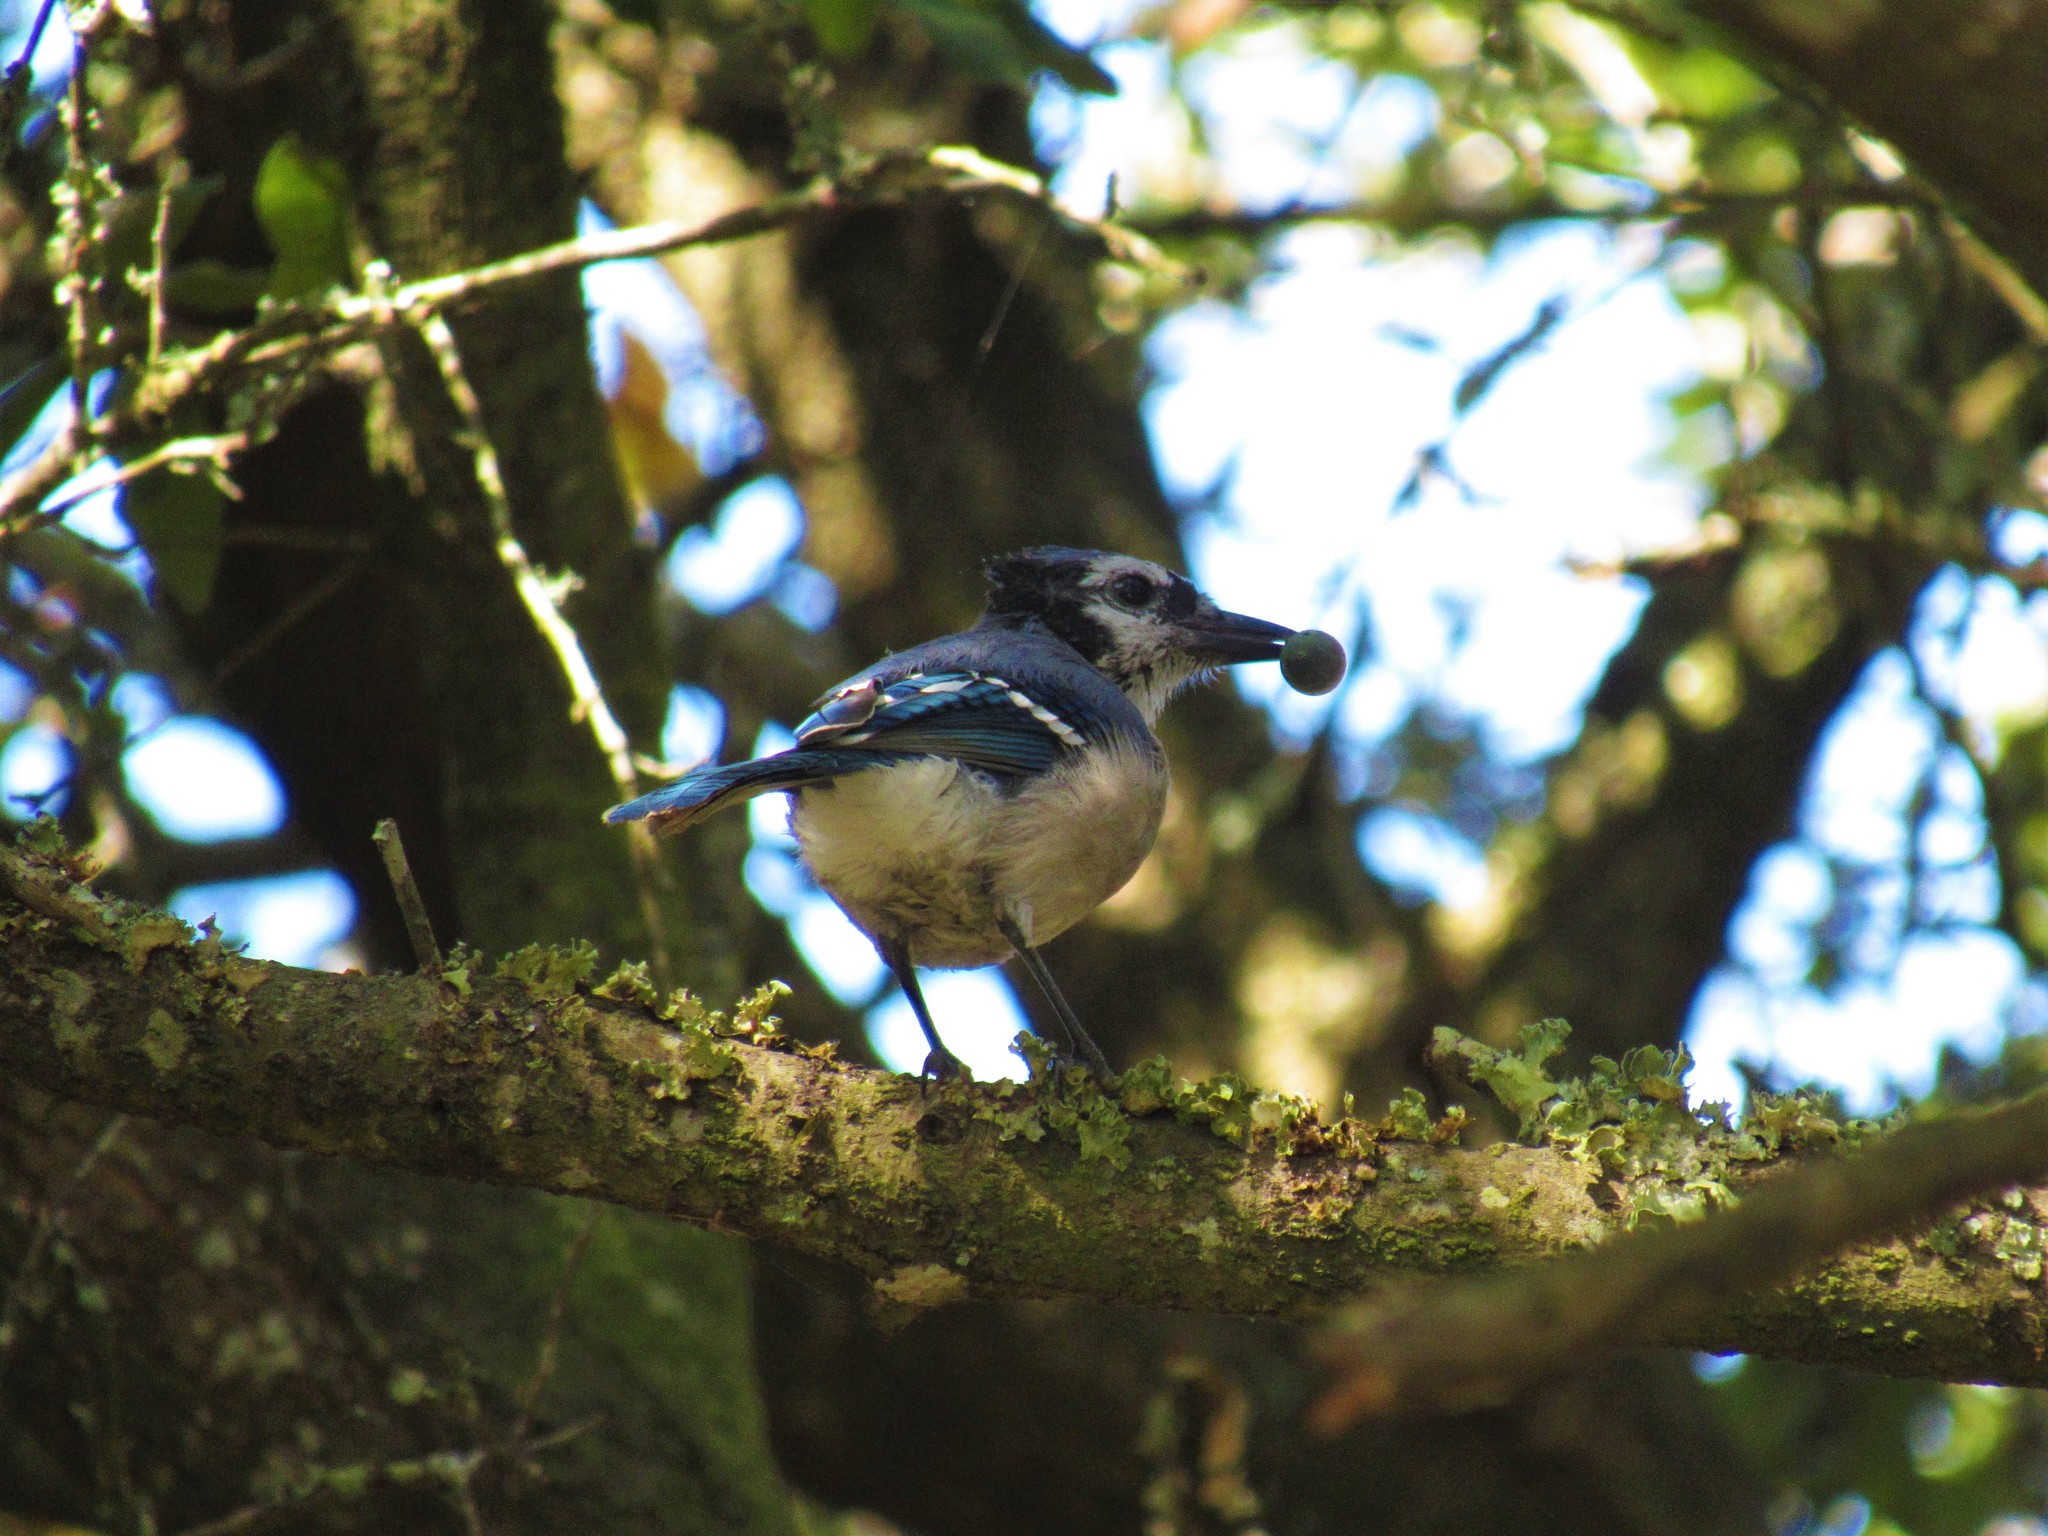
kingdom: Animalia
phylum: Chordata
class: Aves
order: Passeriformes
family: Corvidae
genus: Cyanocitta
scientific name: Cyanocitta cristata
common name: Blue jay
